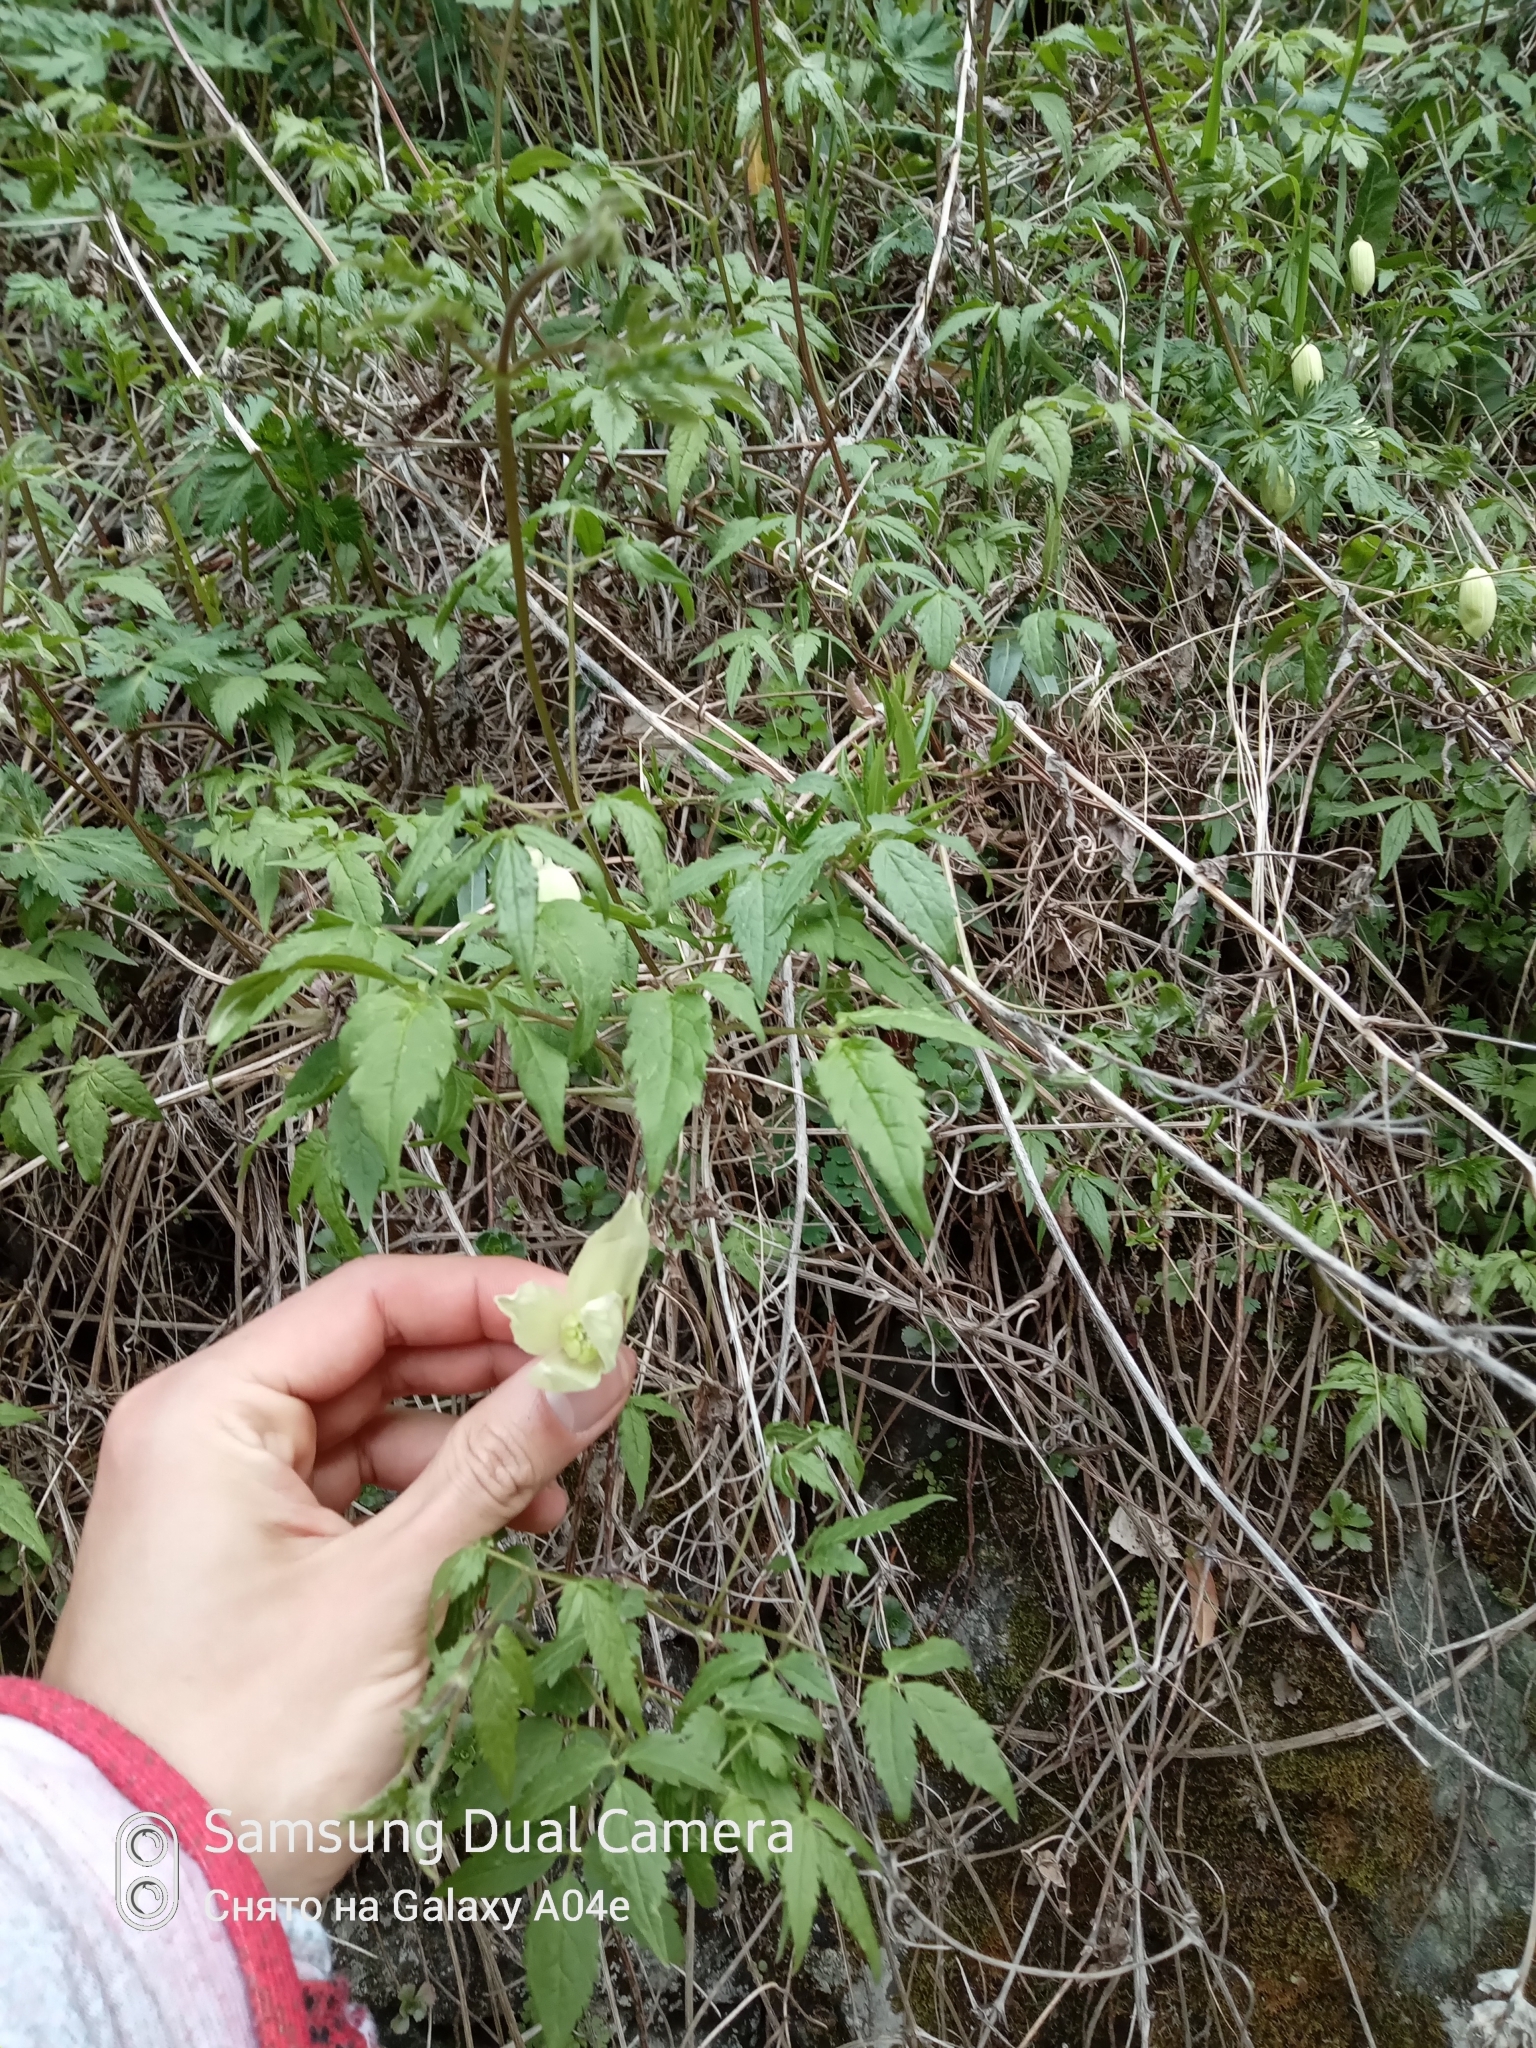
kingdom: Plantae
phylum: Tracheophyta
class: Magnoliopsida
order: Ranunculales
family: Ranunculaceae
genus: Clematis
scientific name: Clematis sibirica
